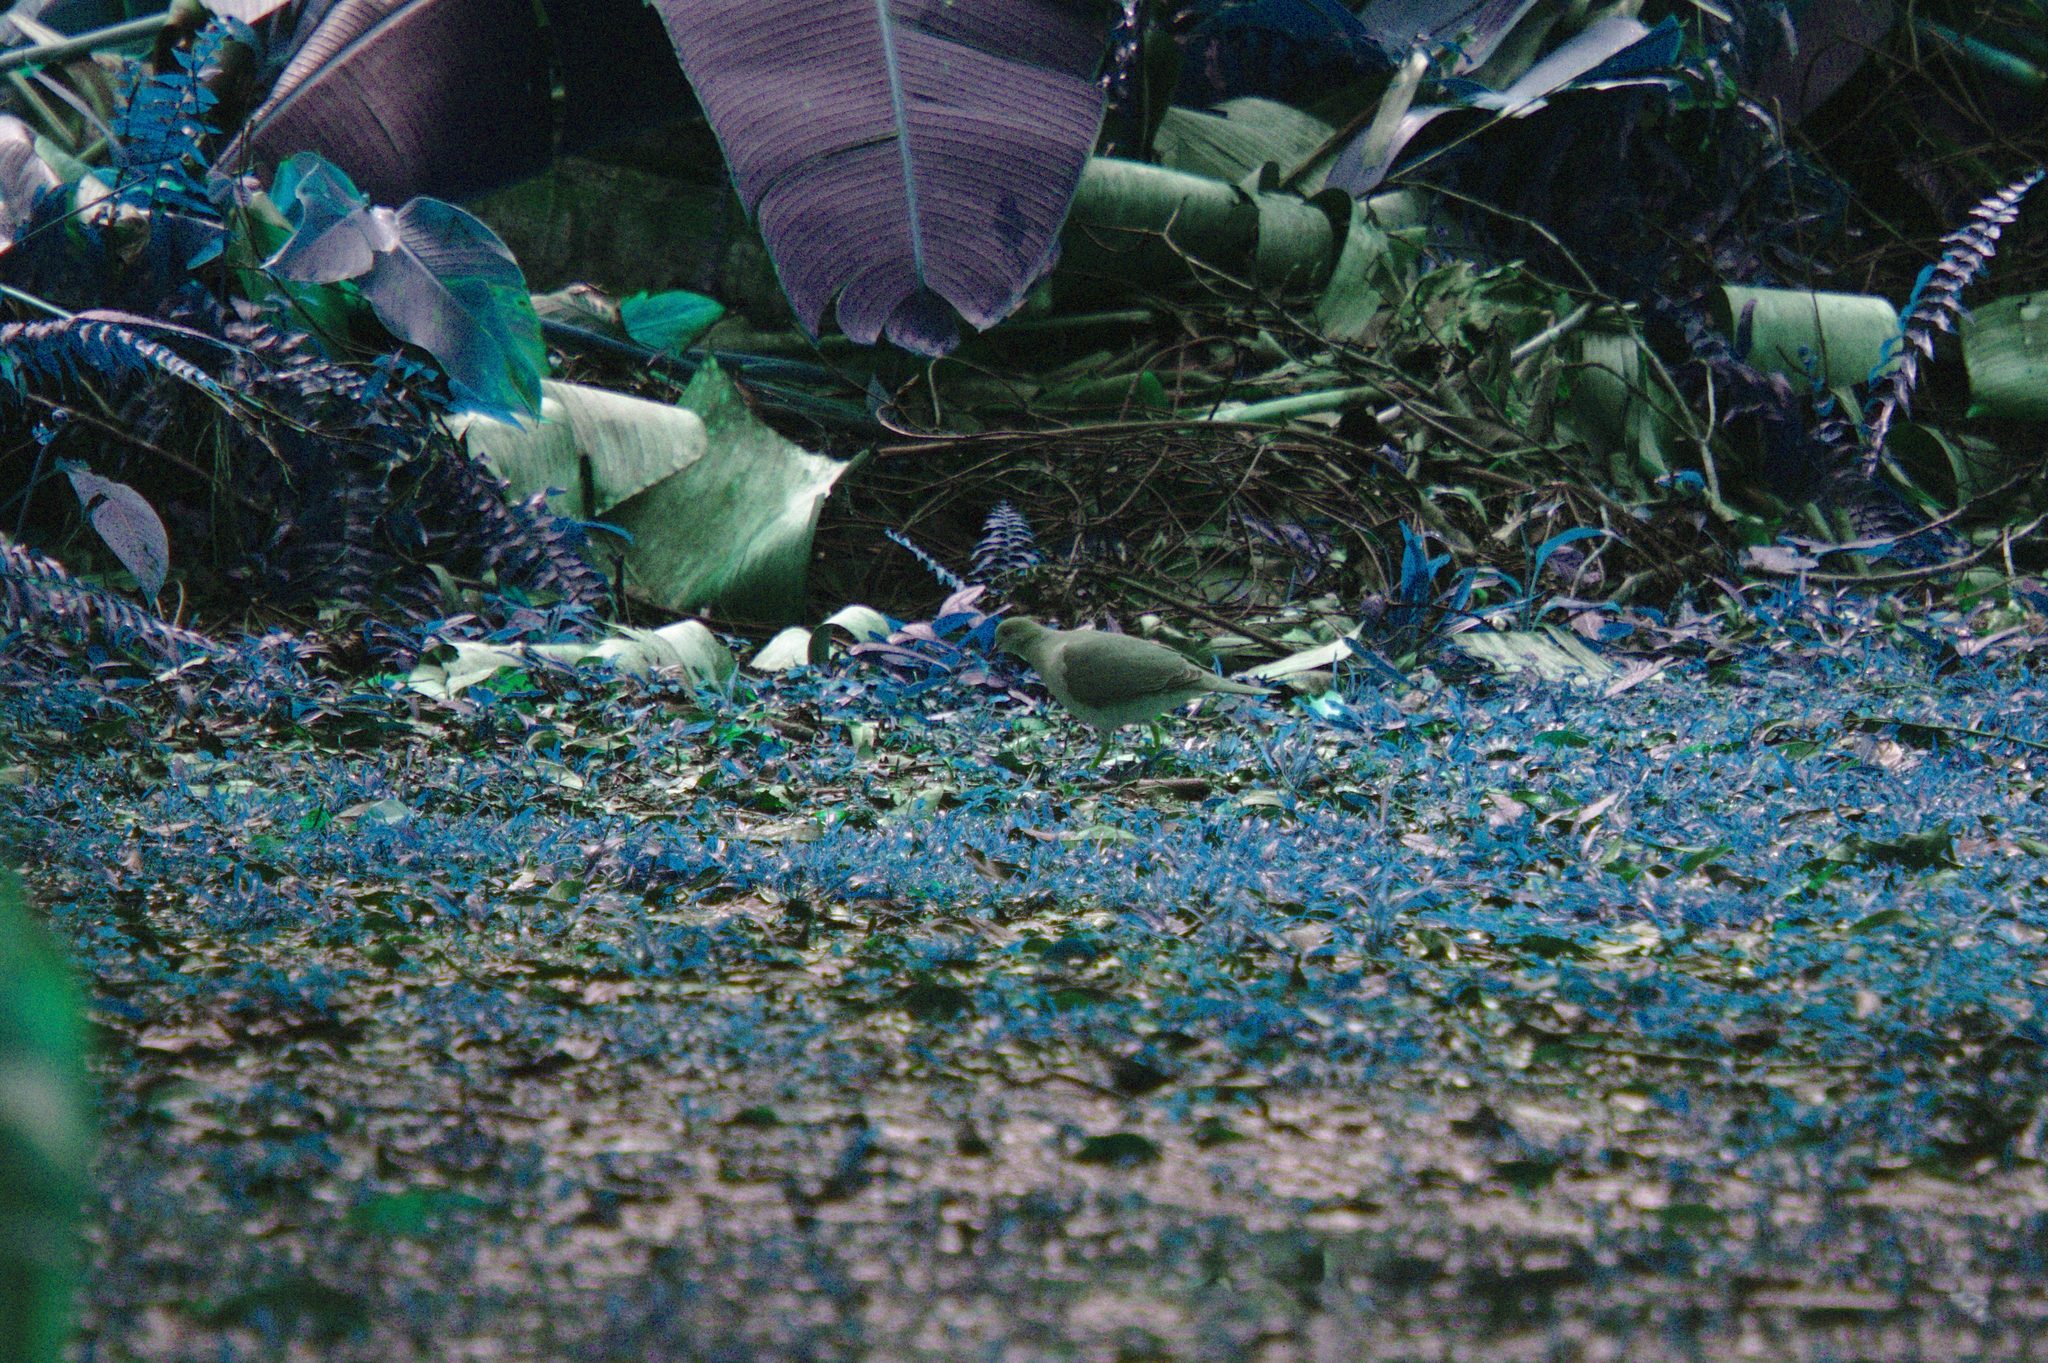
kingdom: Animalia
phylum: Chordata
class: Aves
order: Columbiformes
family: Columbidae
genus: Leptotila
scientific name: Leptotila verreauxi
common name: White-tipped dove
